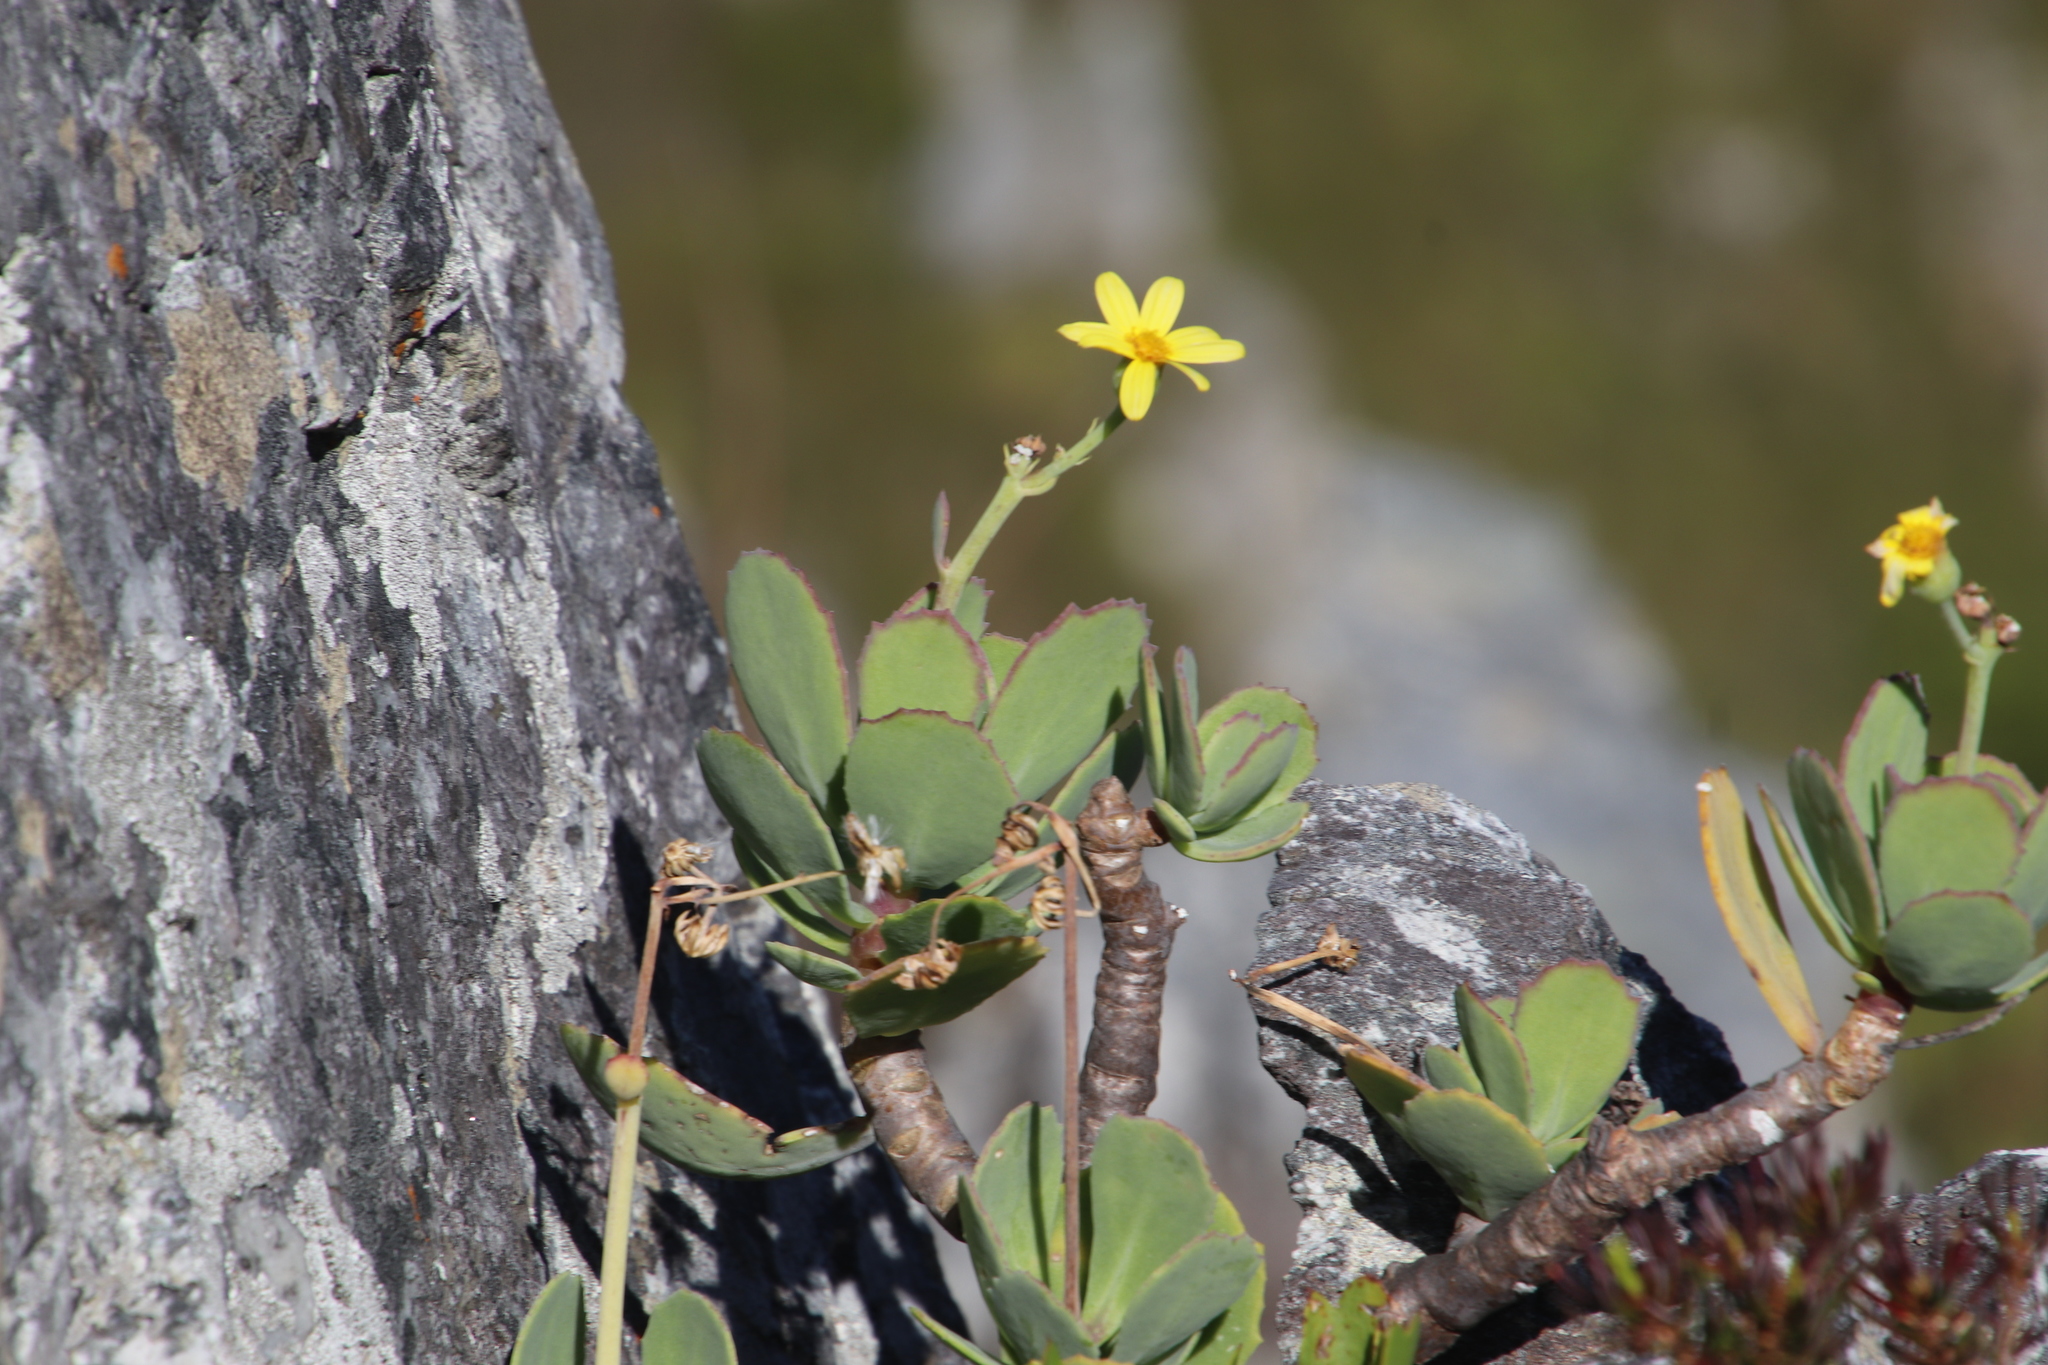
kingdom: Plantae
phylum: Tracheophyta
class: Magnoliopsida
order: Asterales
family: Asteraceae
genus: Othonna
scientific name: Othonna dentata
